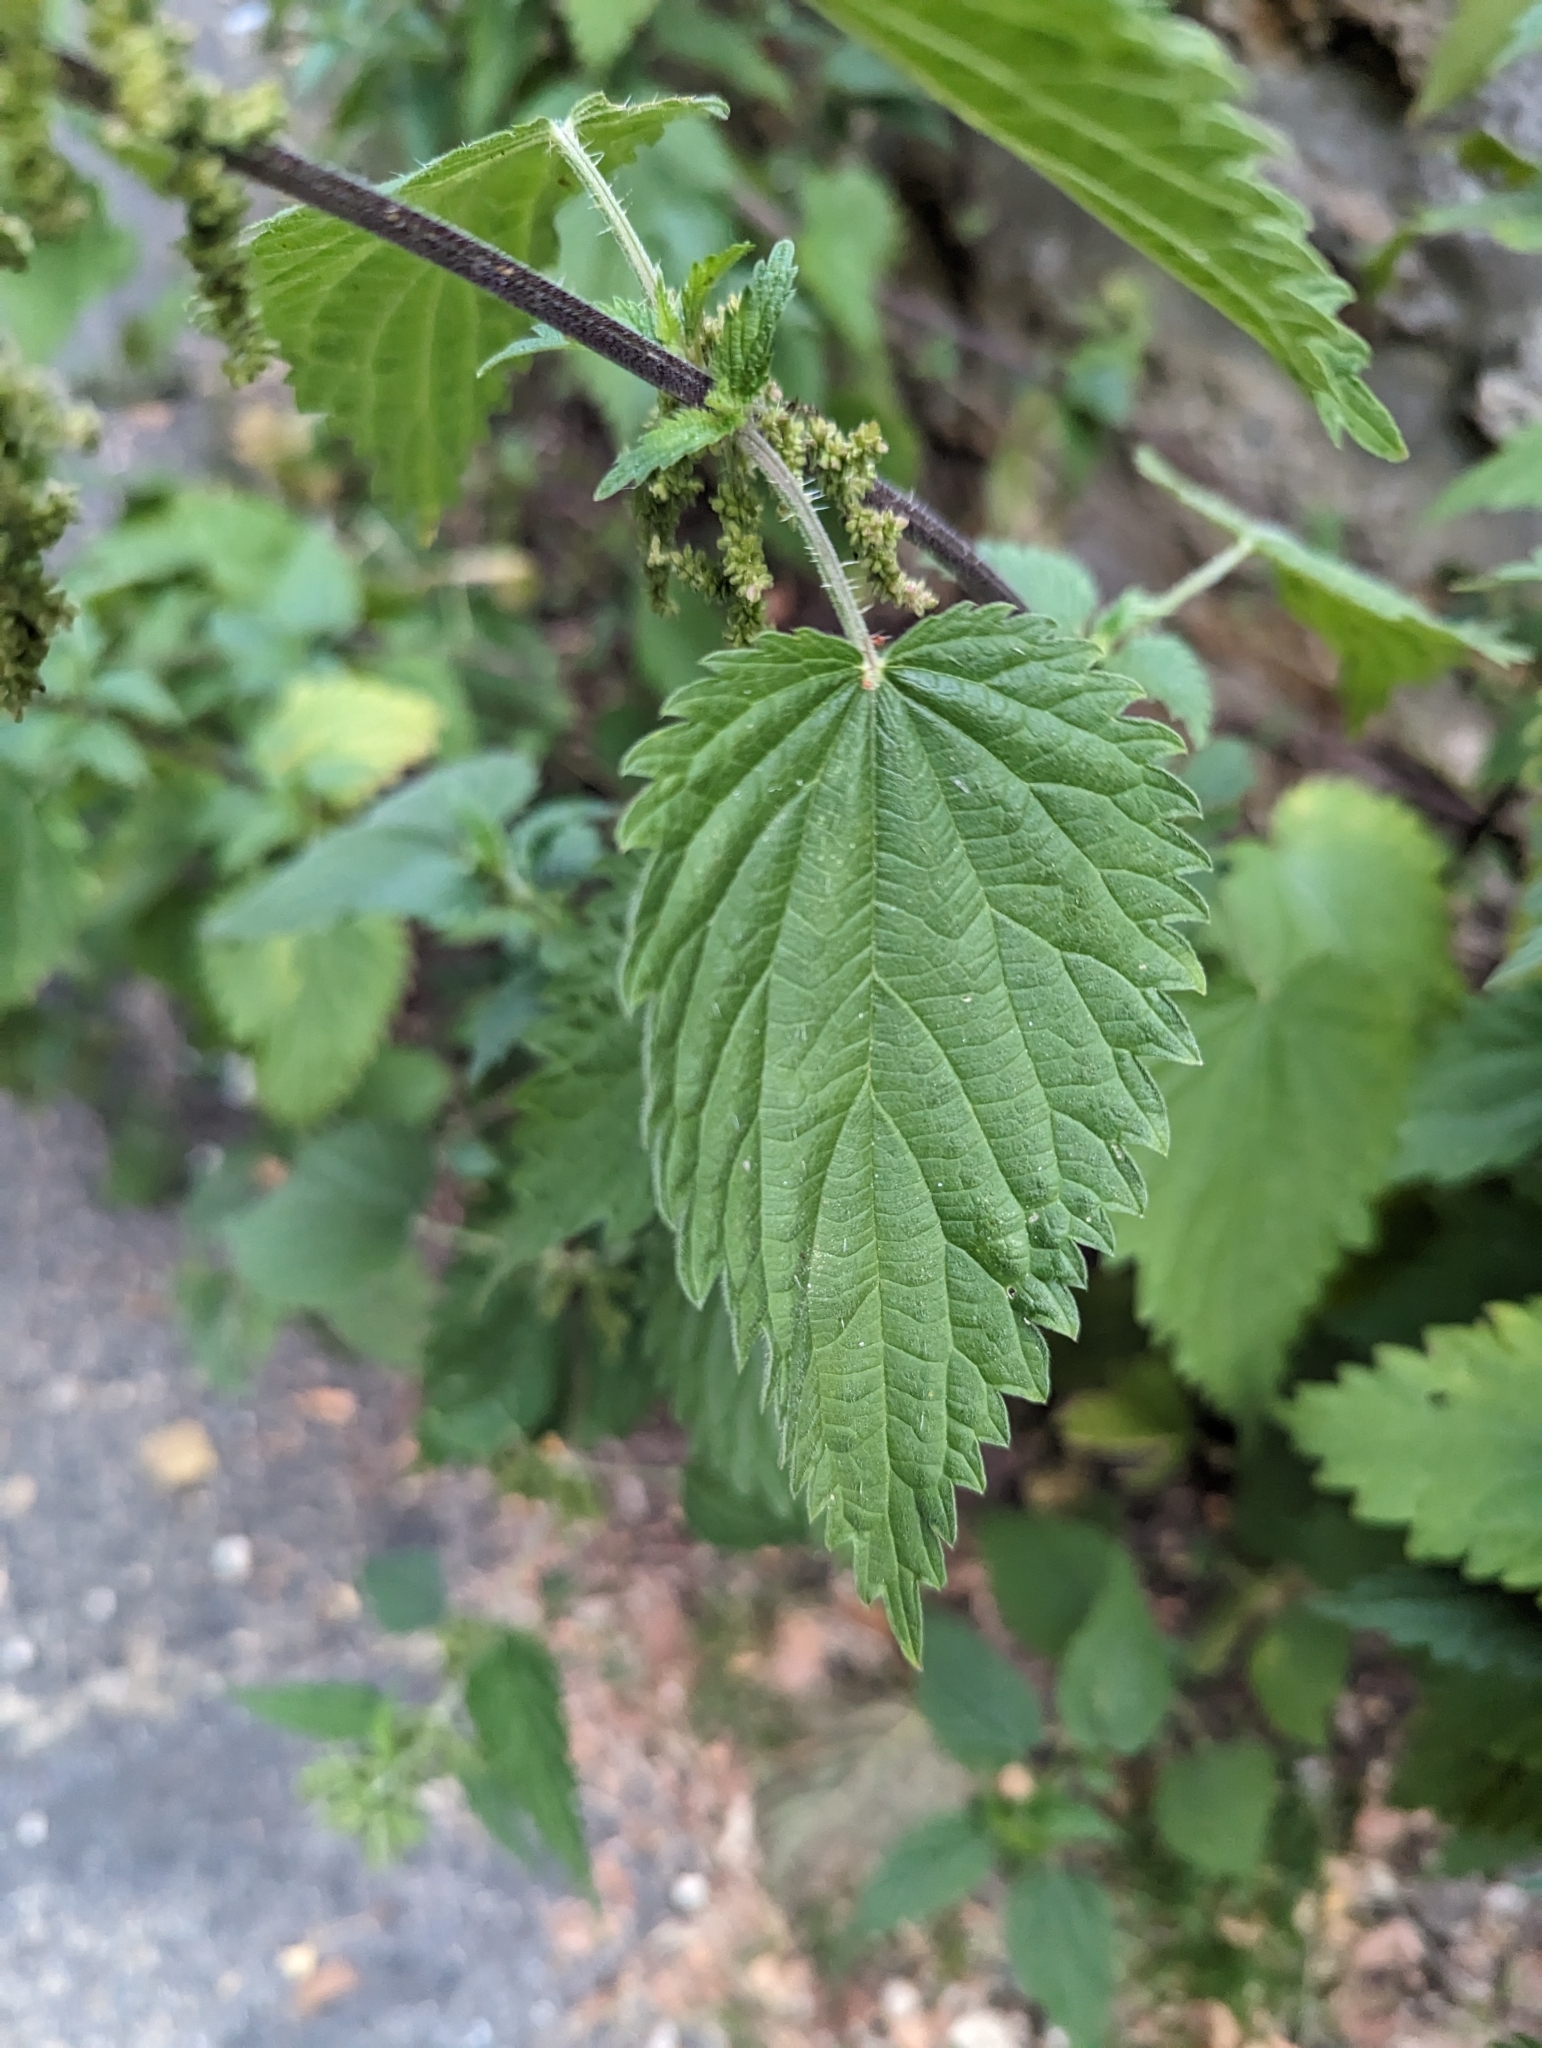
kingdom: Plantae
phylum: Tracheophyta
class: Magnoliopsida
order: Rosales
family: Urticaceae
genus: Urtica
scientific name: Urtica dioica
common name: Common nettle
